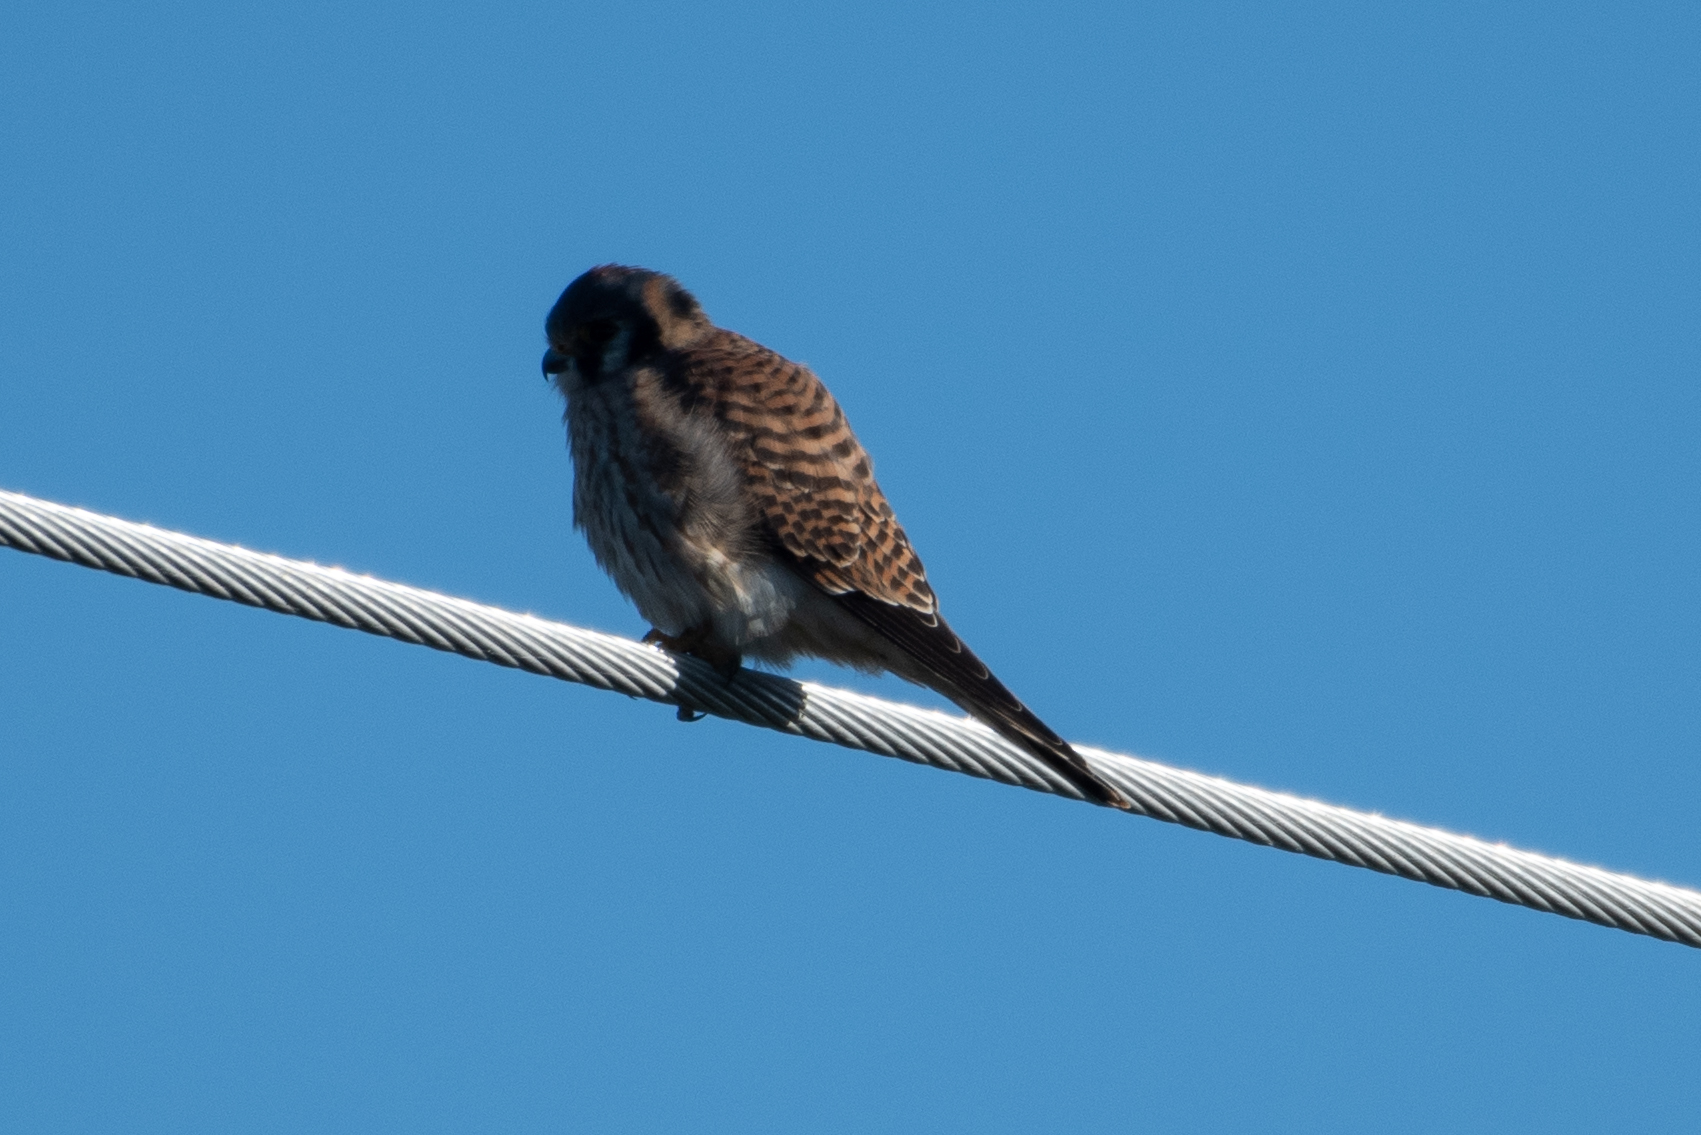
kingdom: Animalia
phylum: Chordata
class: Aves
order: Falconiformes
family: Falconidae
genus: Falco
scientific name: Falco sparverius
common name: American kestrel
